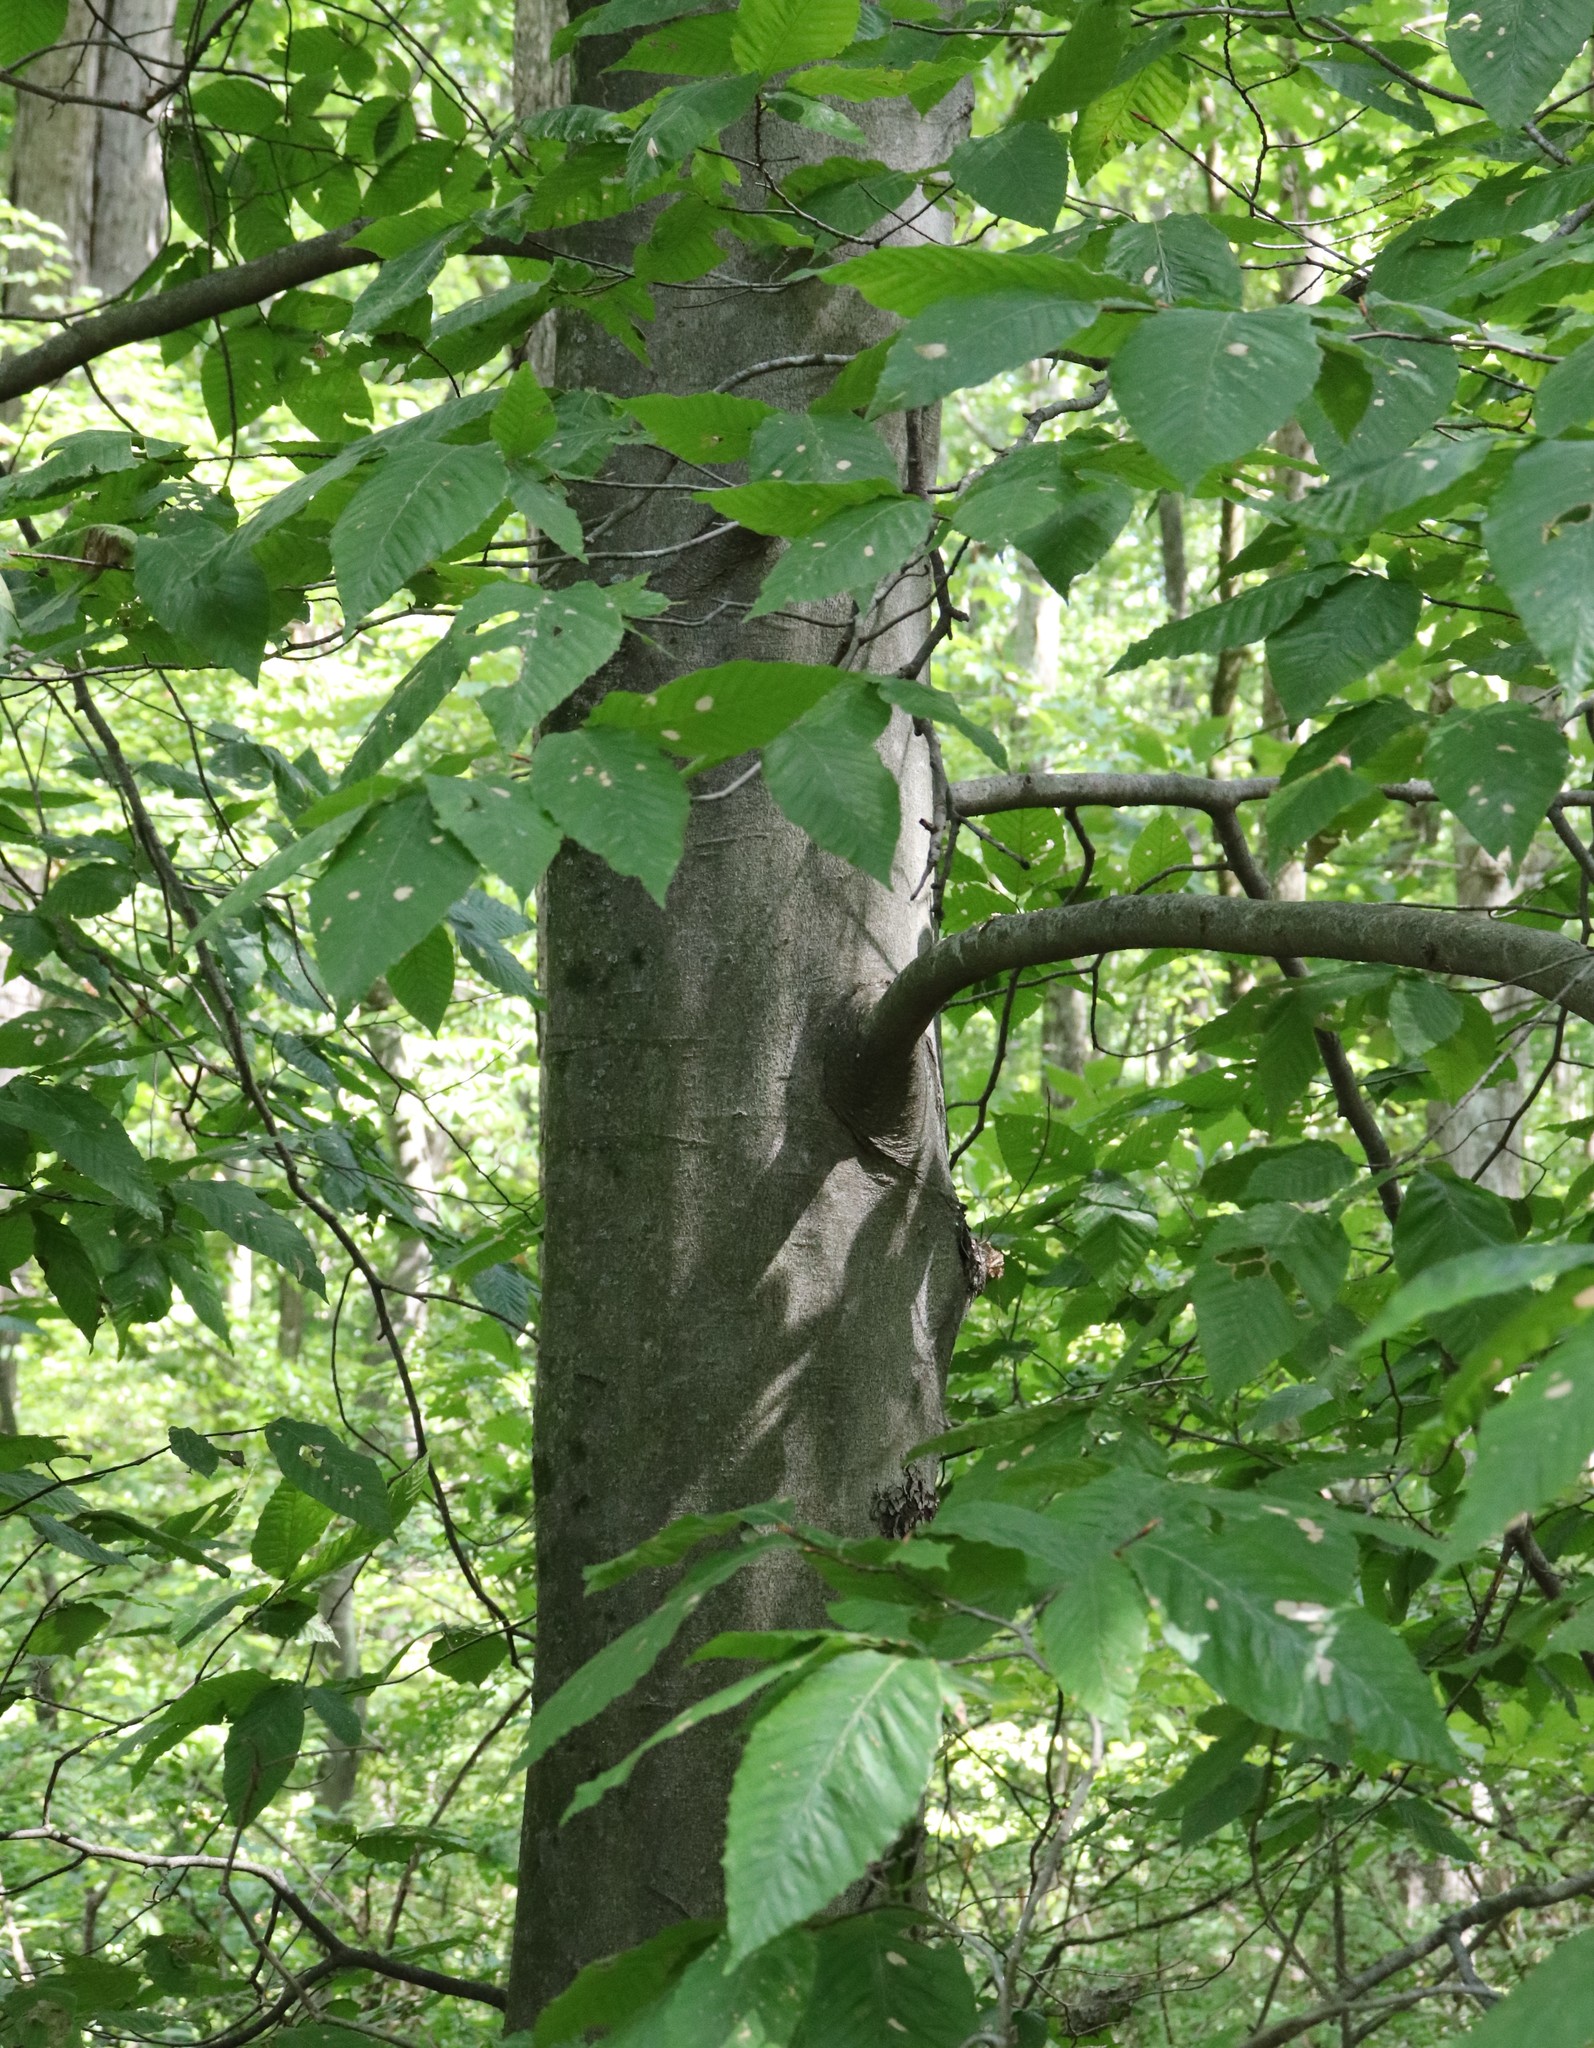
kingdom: Plantae
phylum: Tracheophyta
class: Magnoliopsida
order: Fagales
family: Fagaceae
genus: Fagus
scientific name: Fagus grandifolia
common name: American beech
